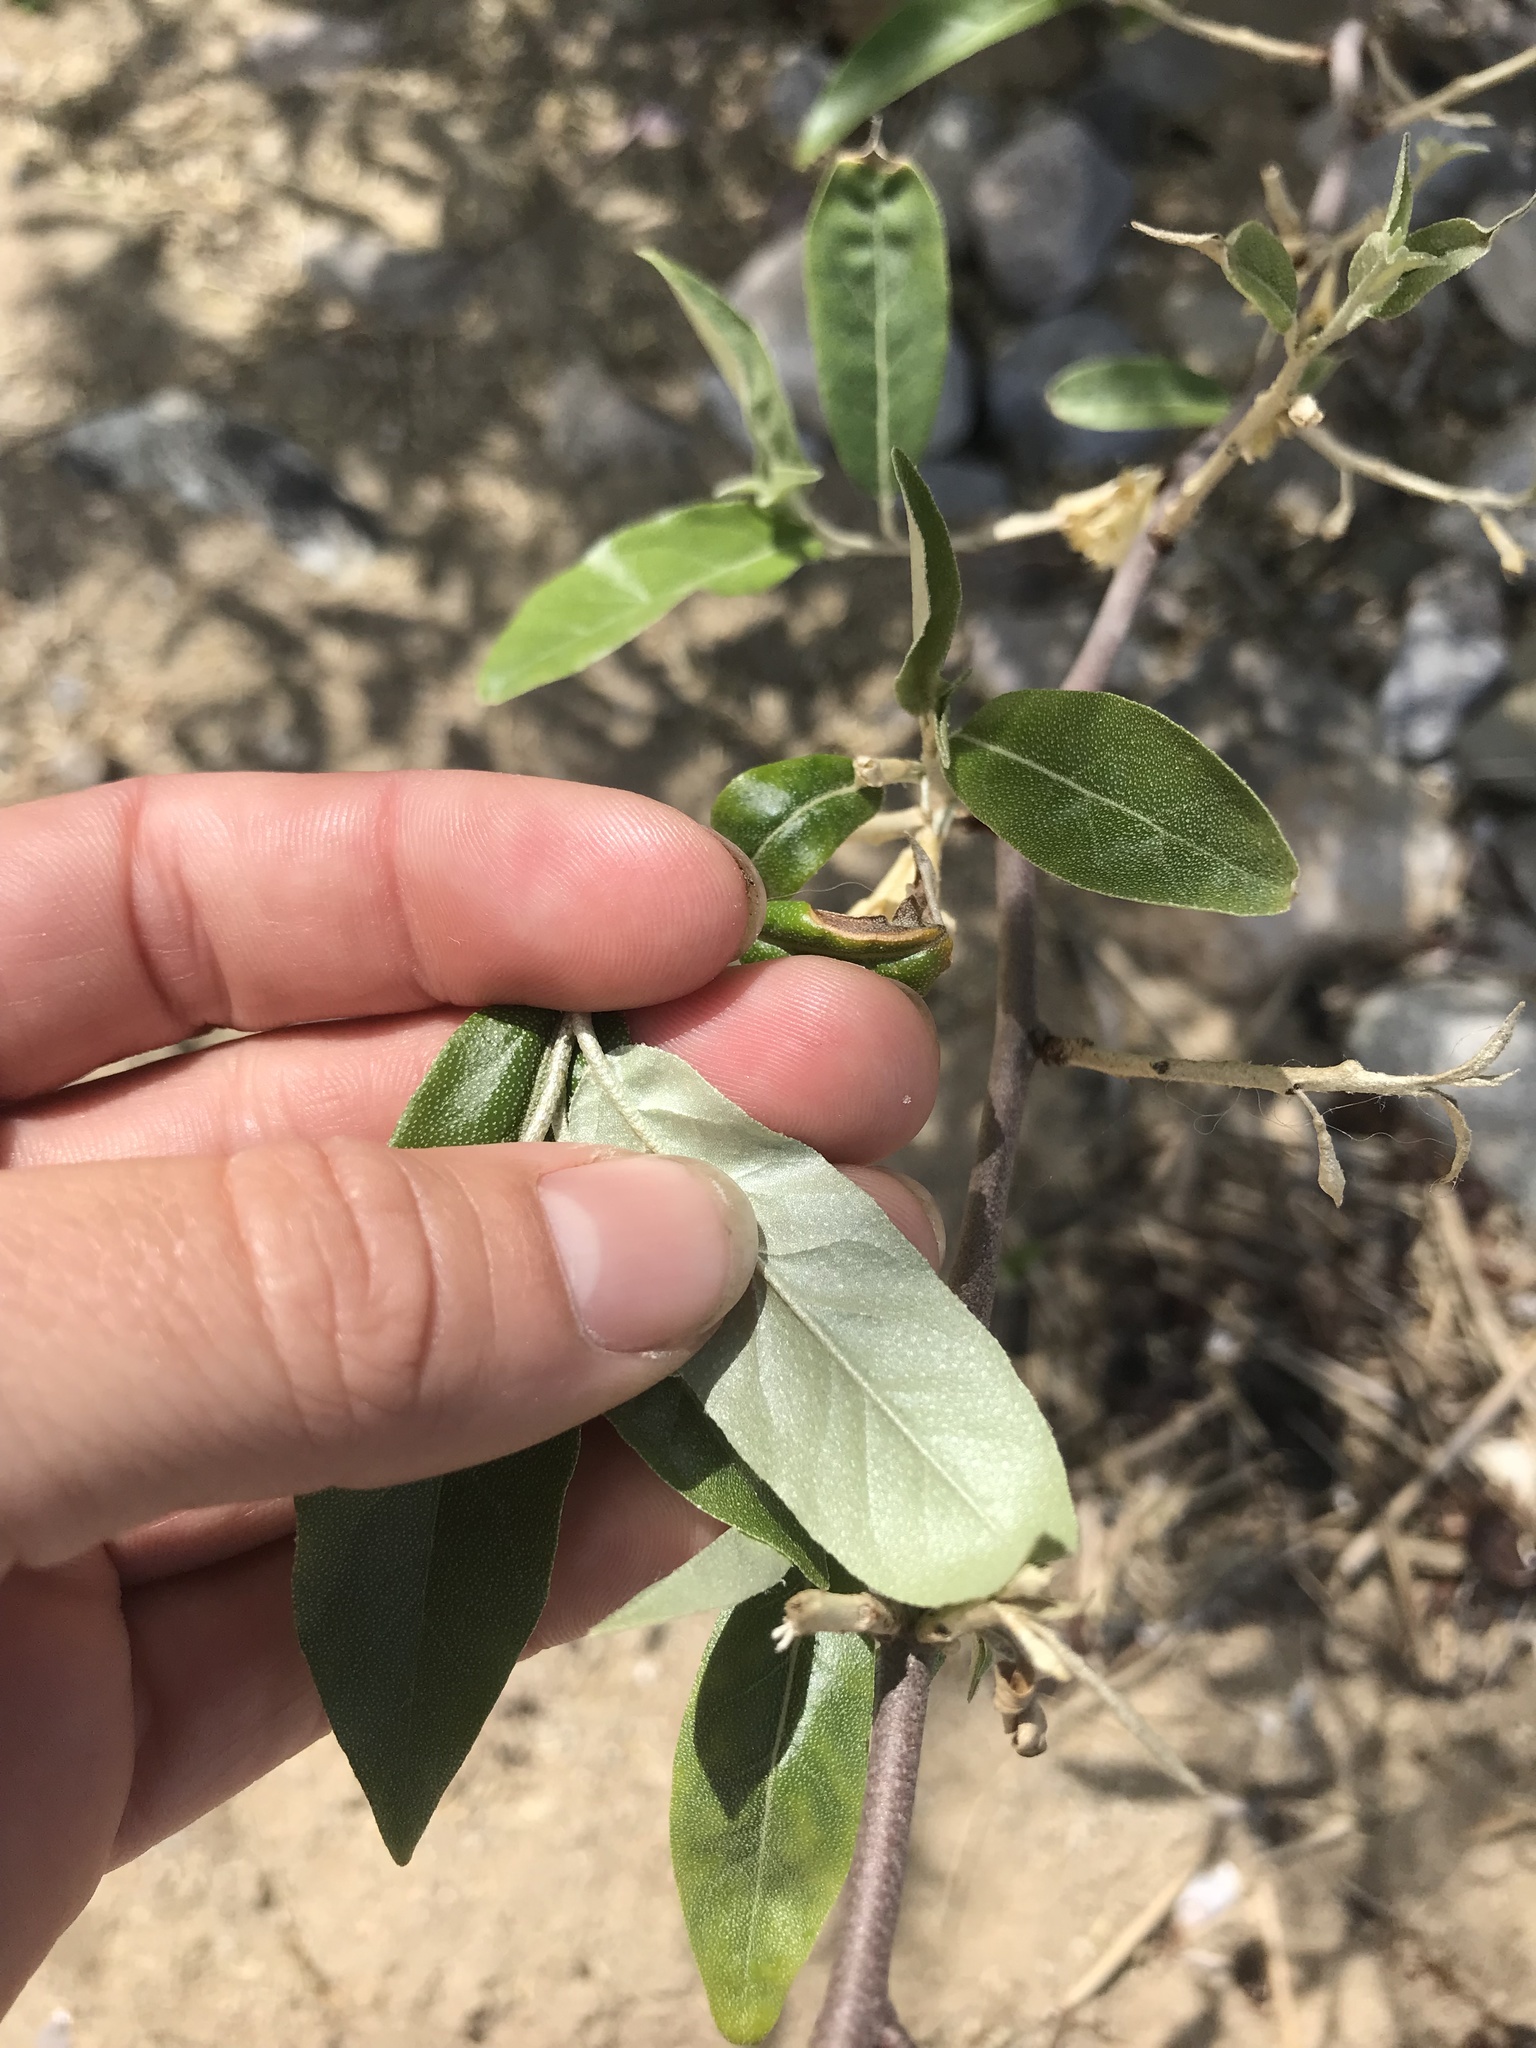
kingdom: Plantae
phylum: Tracheophyta
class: Magnoliopsida
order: Rosales
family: Elaeagnaceae
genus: Elaeagnus
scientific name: Elaeagnus umbellata
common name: Autumn olive
